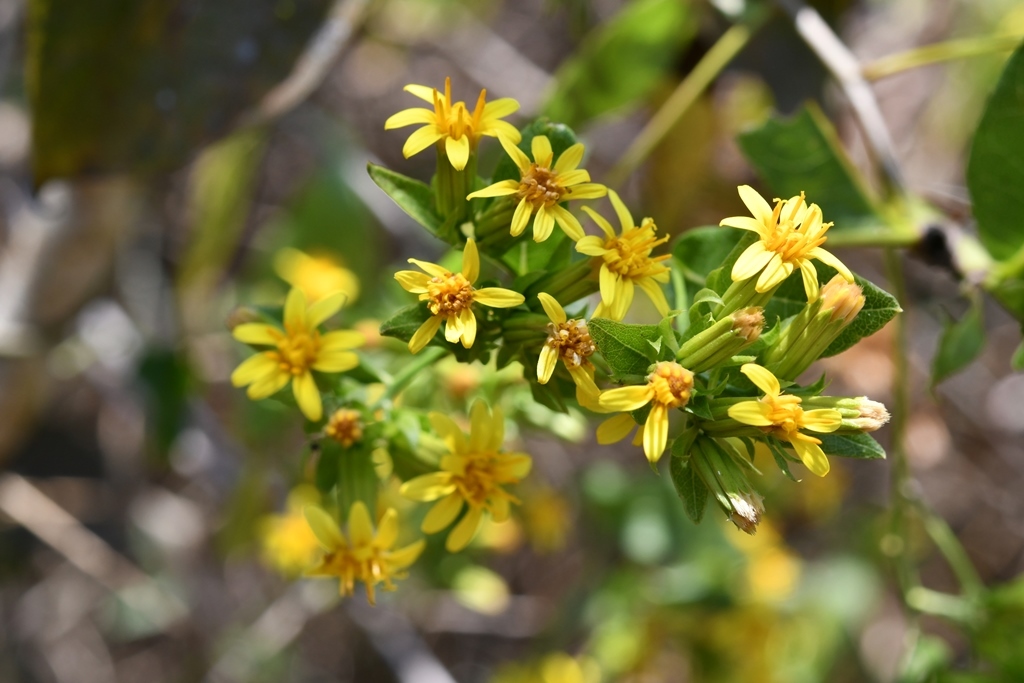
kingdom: Plantae
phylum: Tracheophyta
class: Magnoliopsida
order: Asterales
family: Asteraceae
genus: Trixis
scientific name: Trixis inula
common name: Tropical threefold
